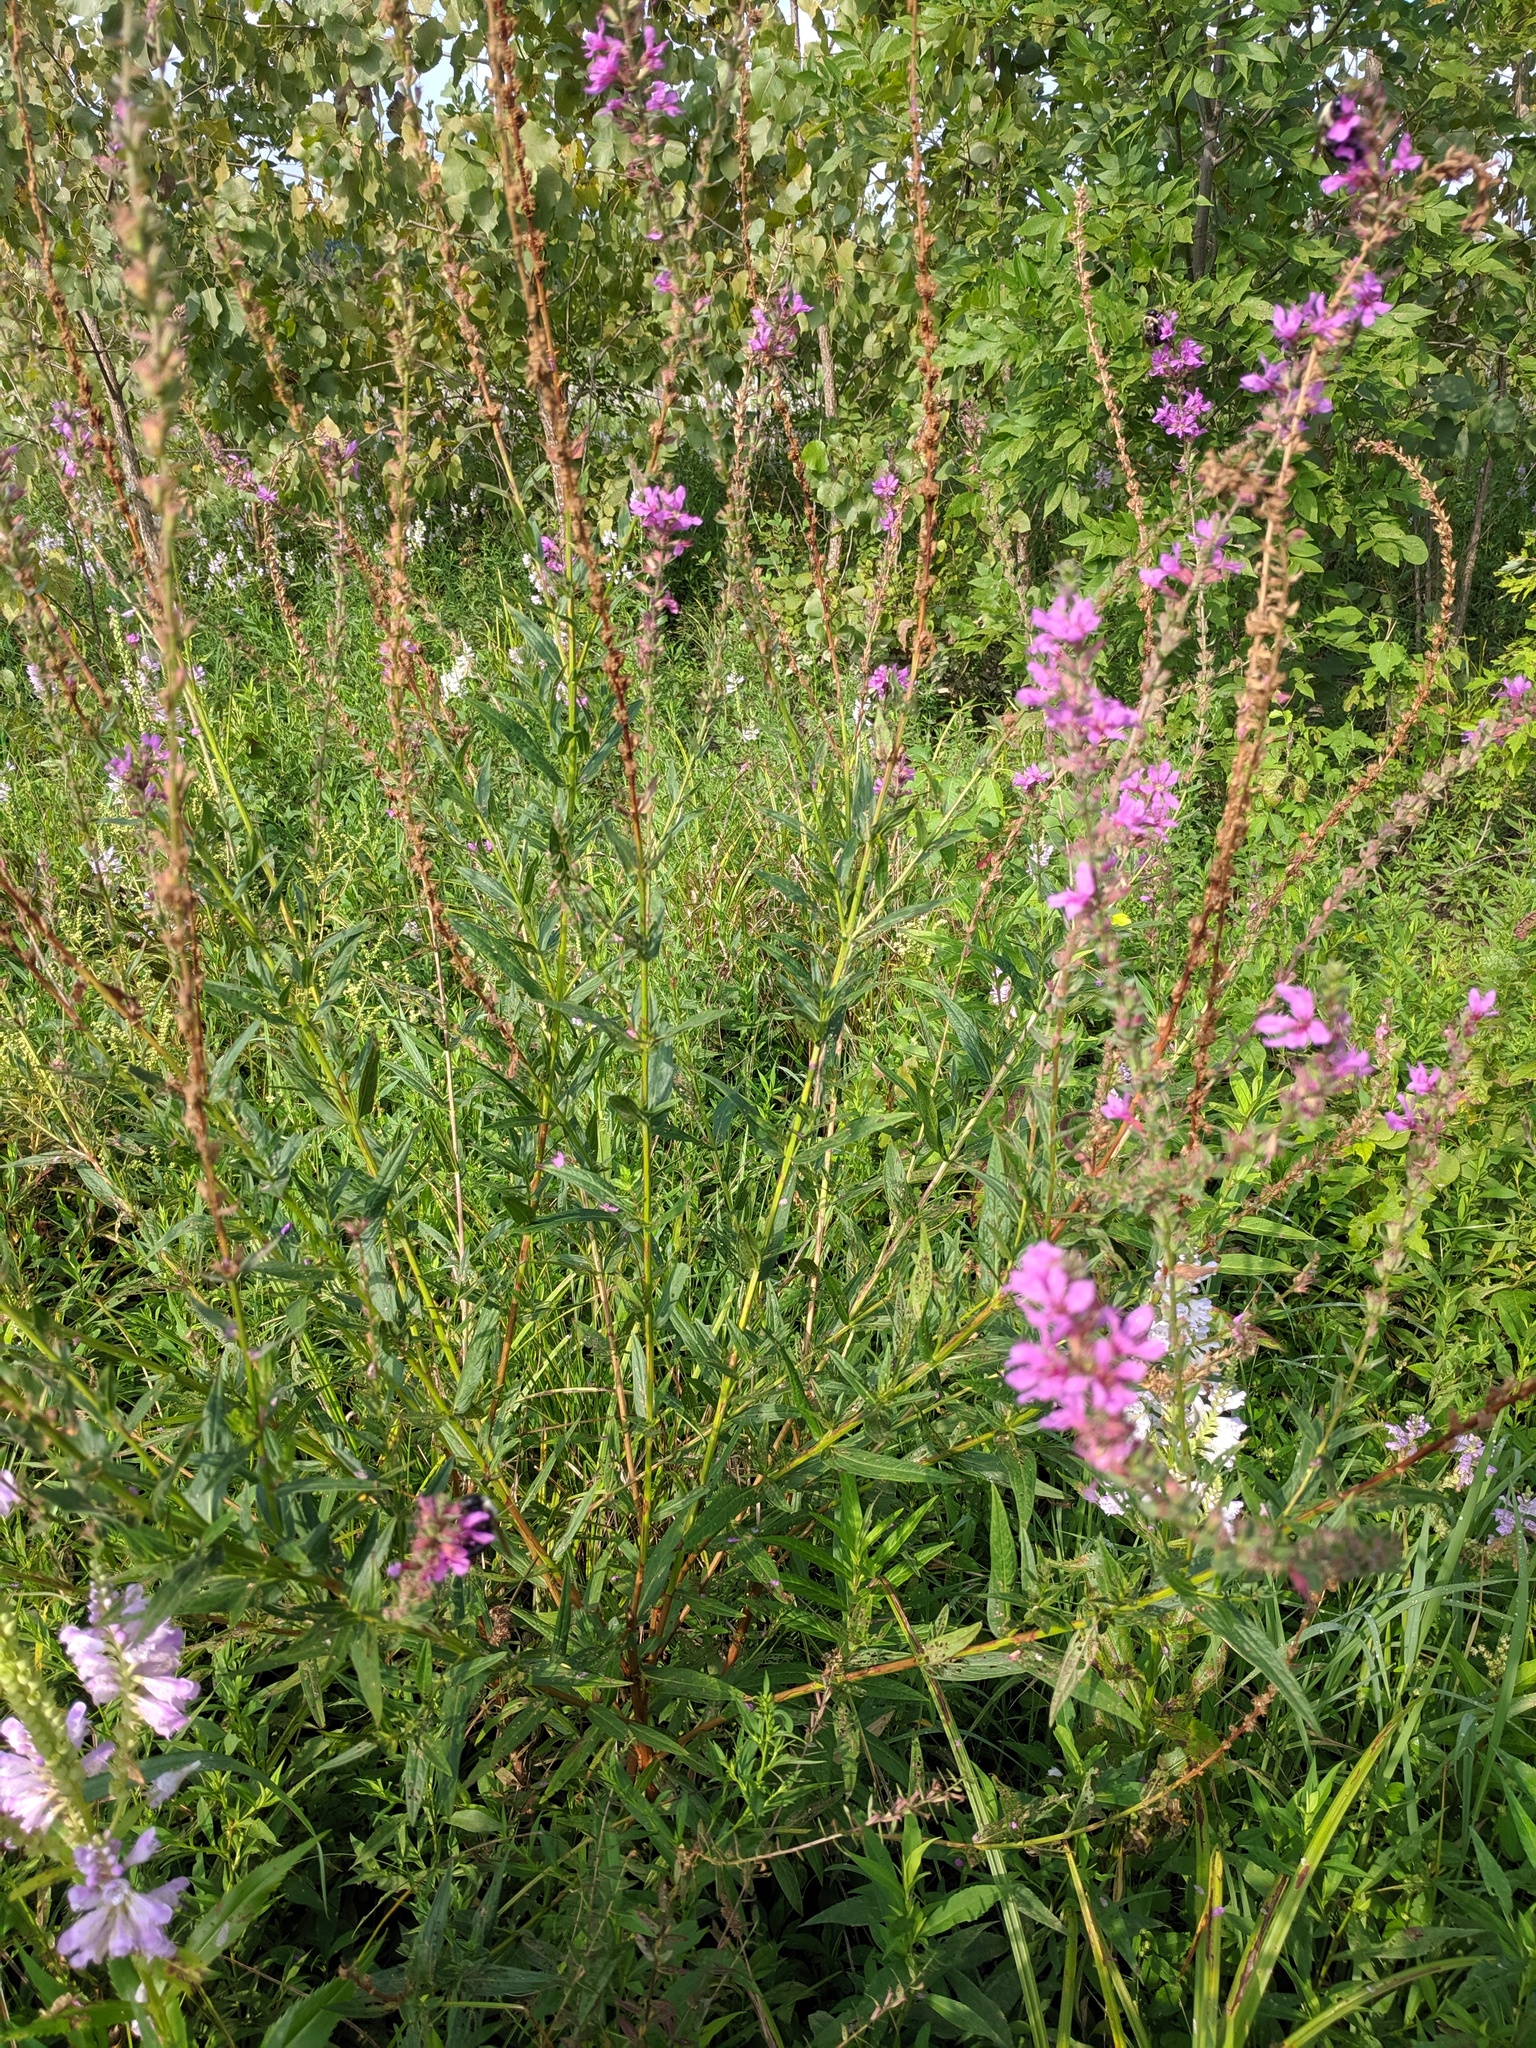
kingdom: Plantae
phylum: Tracheophyta
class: Magnoliopsida
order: Myrtales
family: Lythraceae
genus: Lythrum
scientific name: Lythrum salicaria
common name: Purple loosestrife
